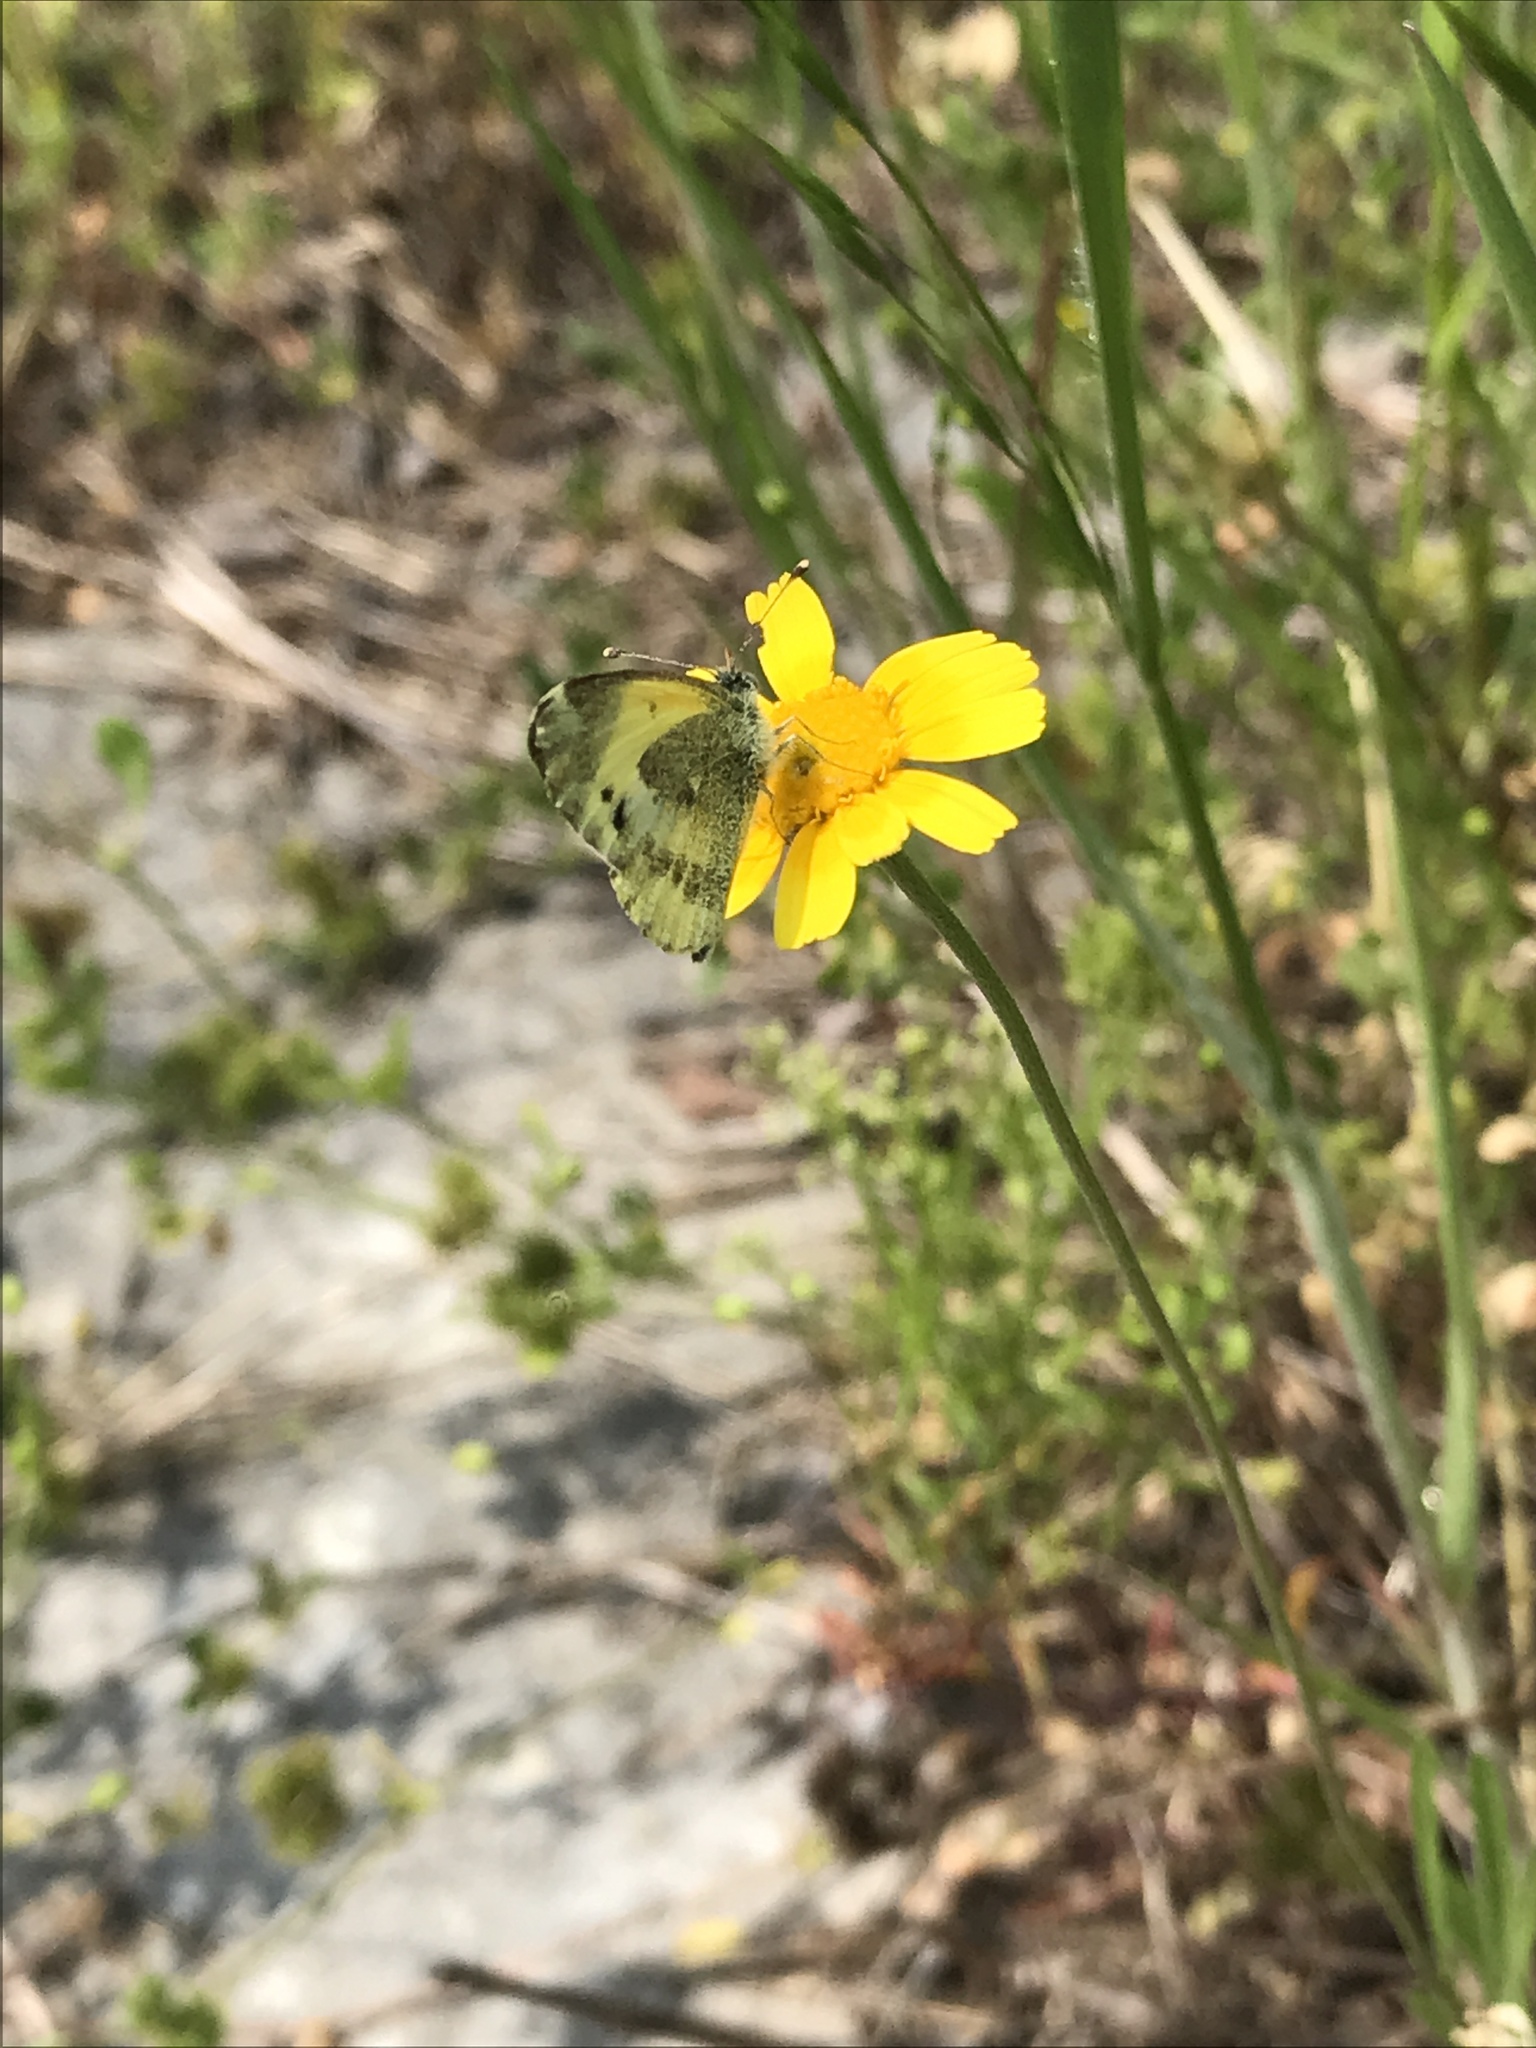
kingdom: Animalia
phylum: Arthropoda
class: Insecta
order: Lepidoptera
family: Pieridae
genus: Nathalis
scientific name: Nathalis iole
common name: Dainty sulphur
